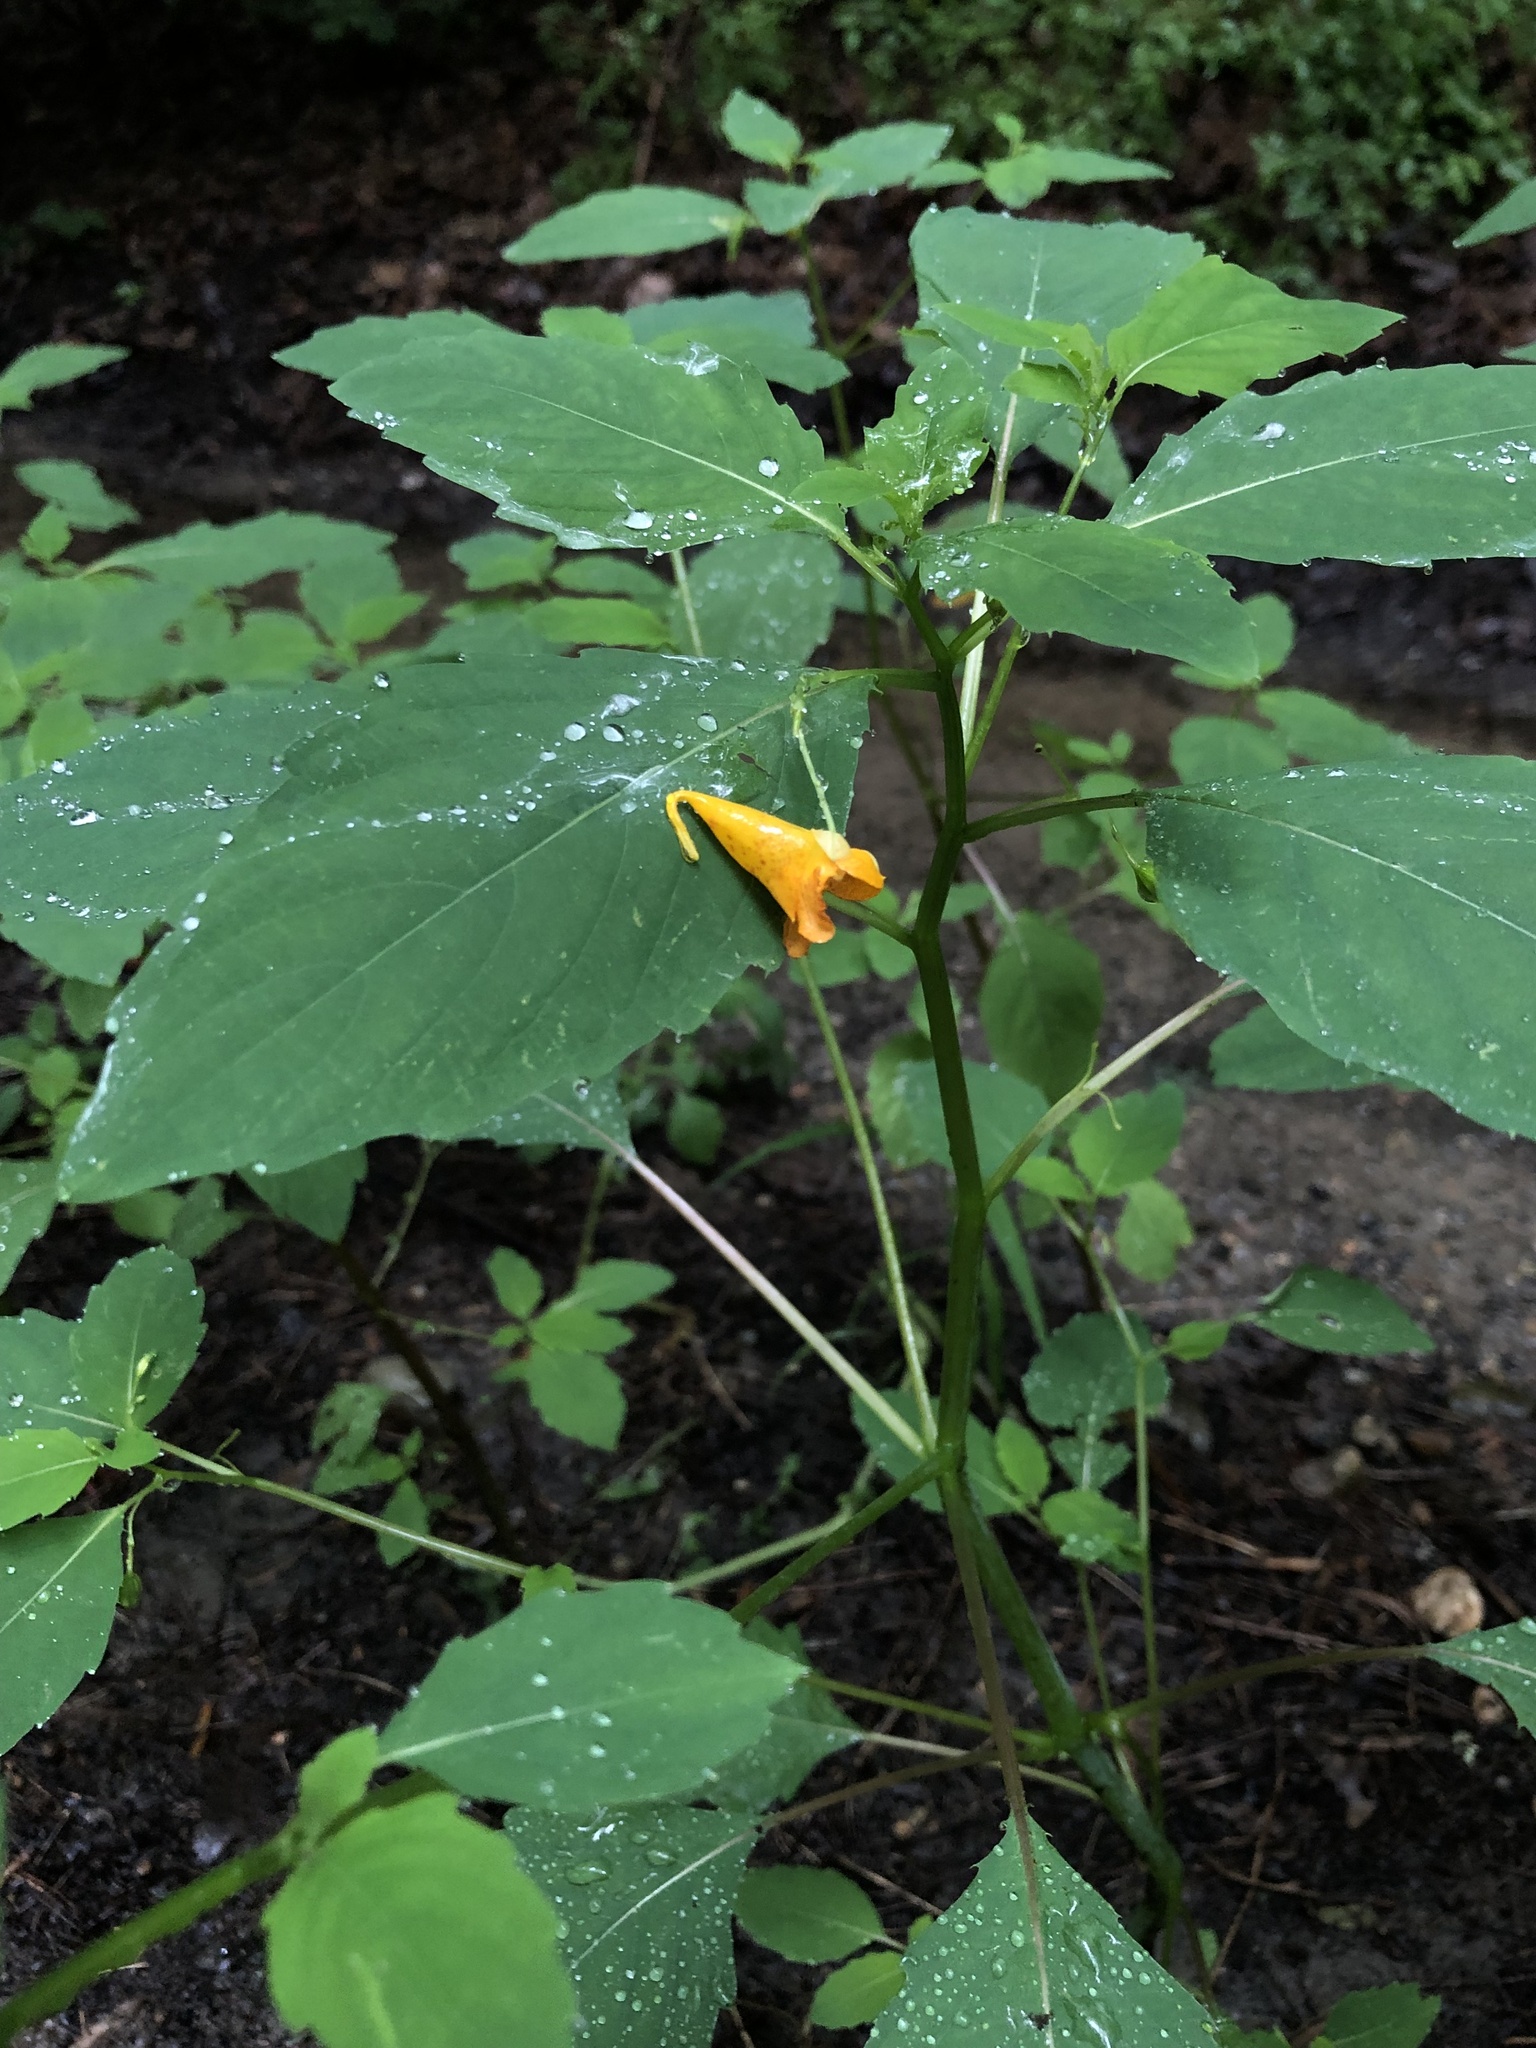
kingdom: Plantae
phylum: Tracheophyta
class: Magnoliopsida
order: Ericales
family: Balsaminaceae
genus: Impatiens
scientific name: Impatiens capensis
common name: Orange balsam
